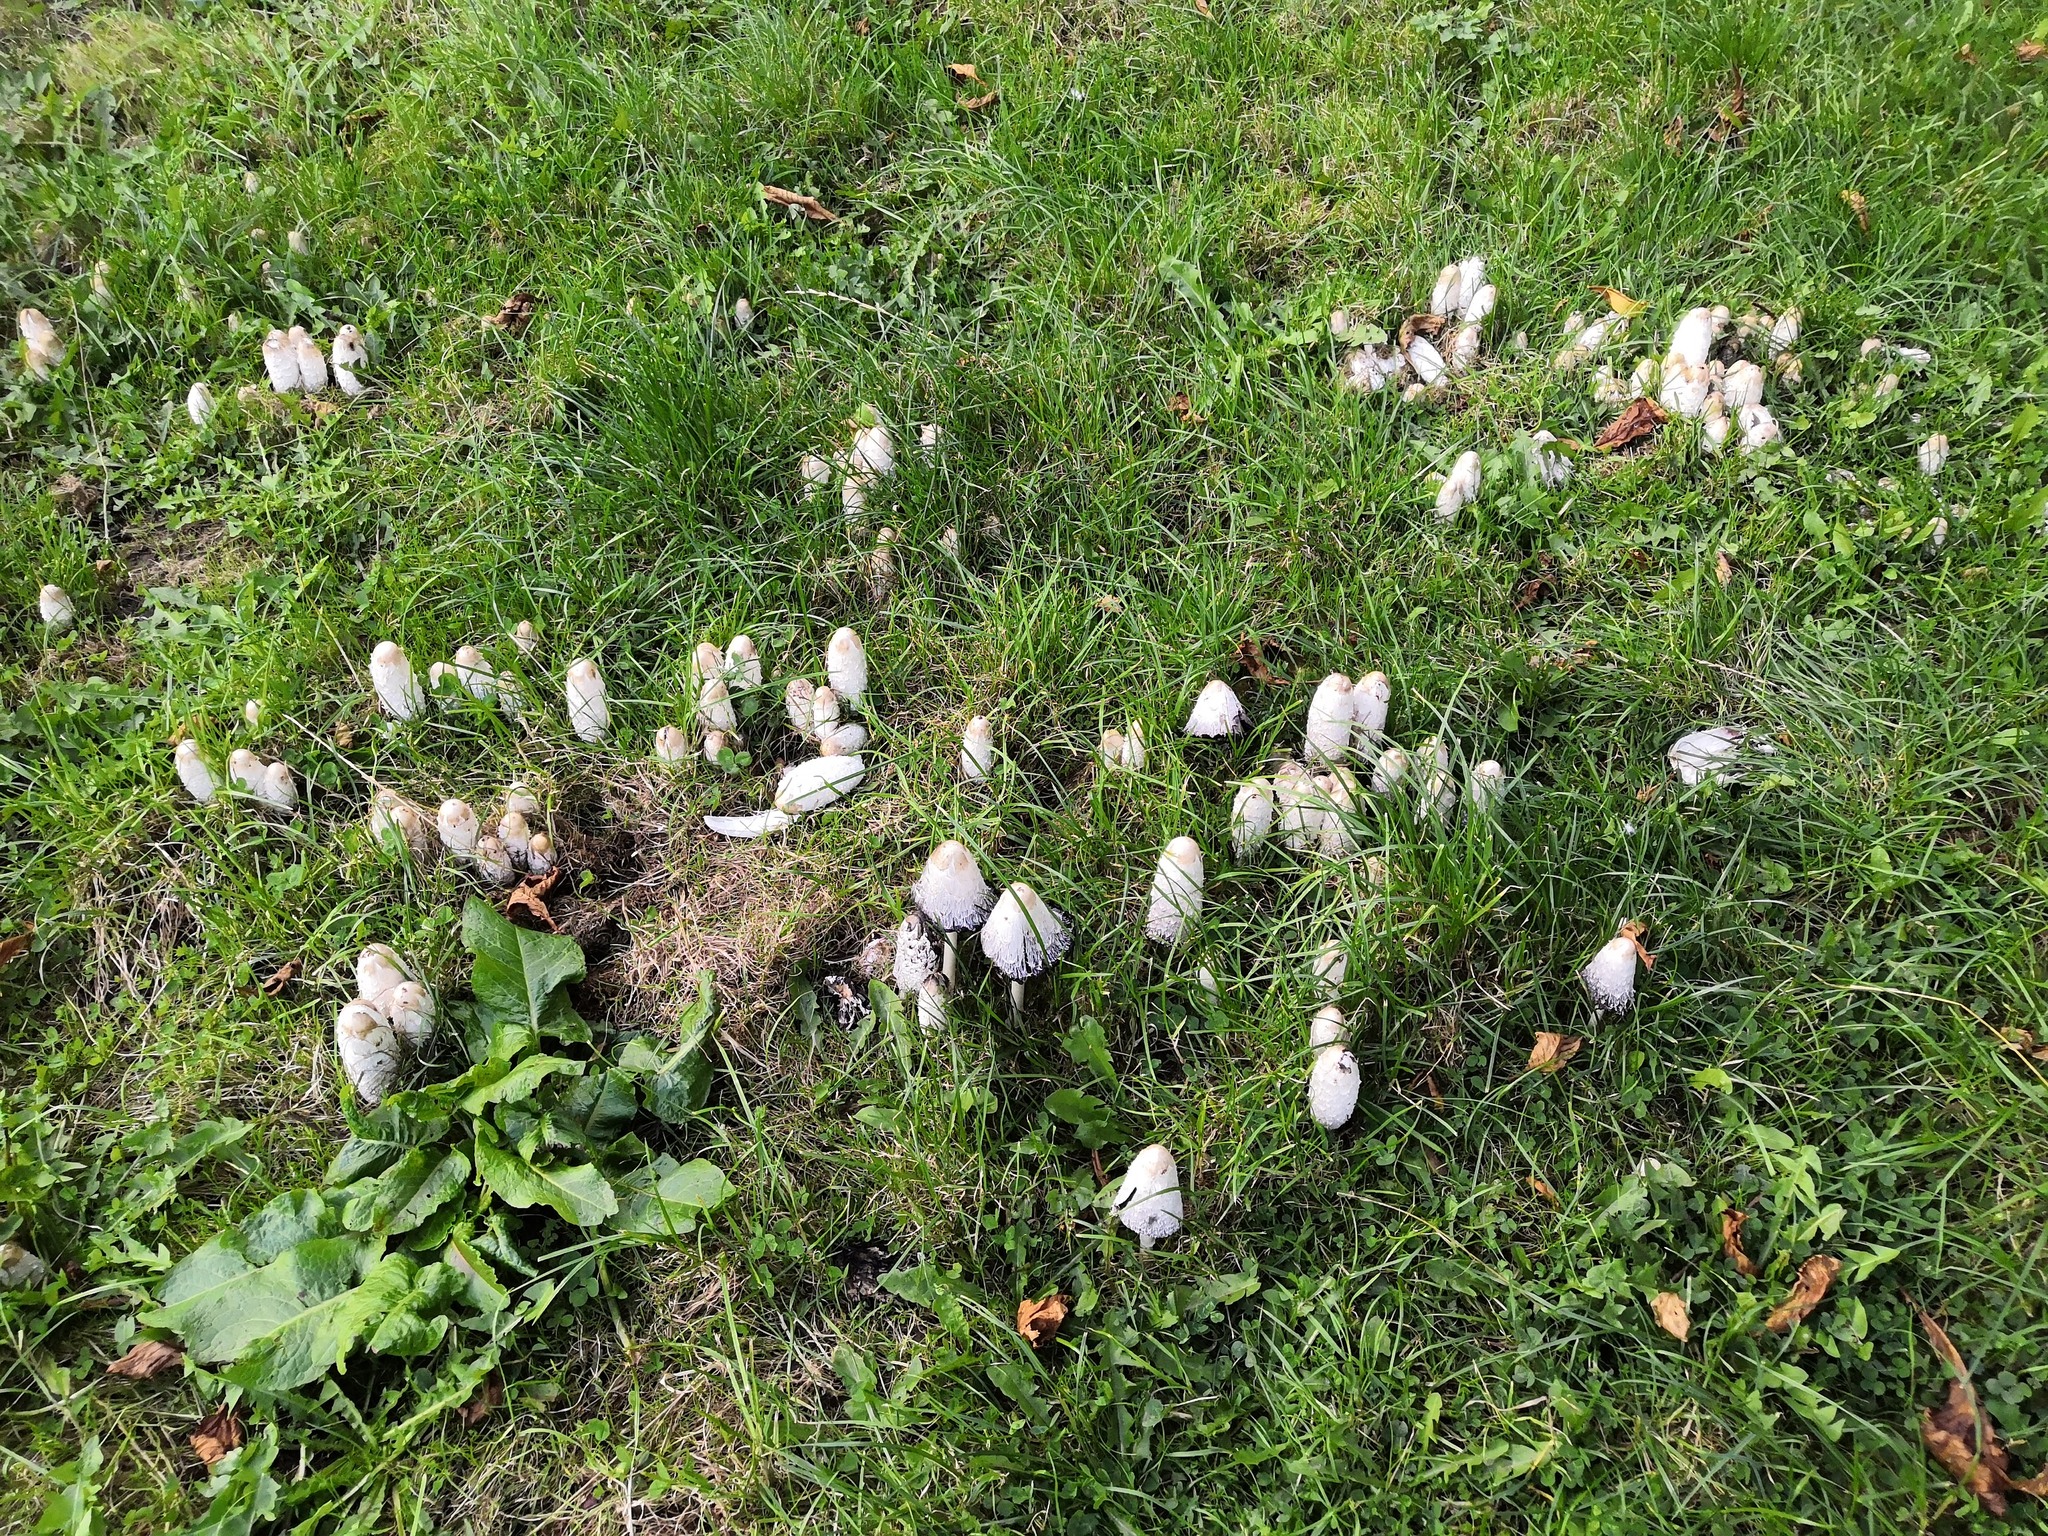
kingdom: Fungi
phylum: Basidiomycota
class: Agaricomycetes
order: Agaricales
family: Agaricaceae
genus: Coprinus
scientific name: Coprinus comatus
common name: Lawyer's wig
